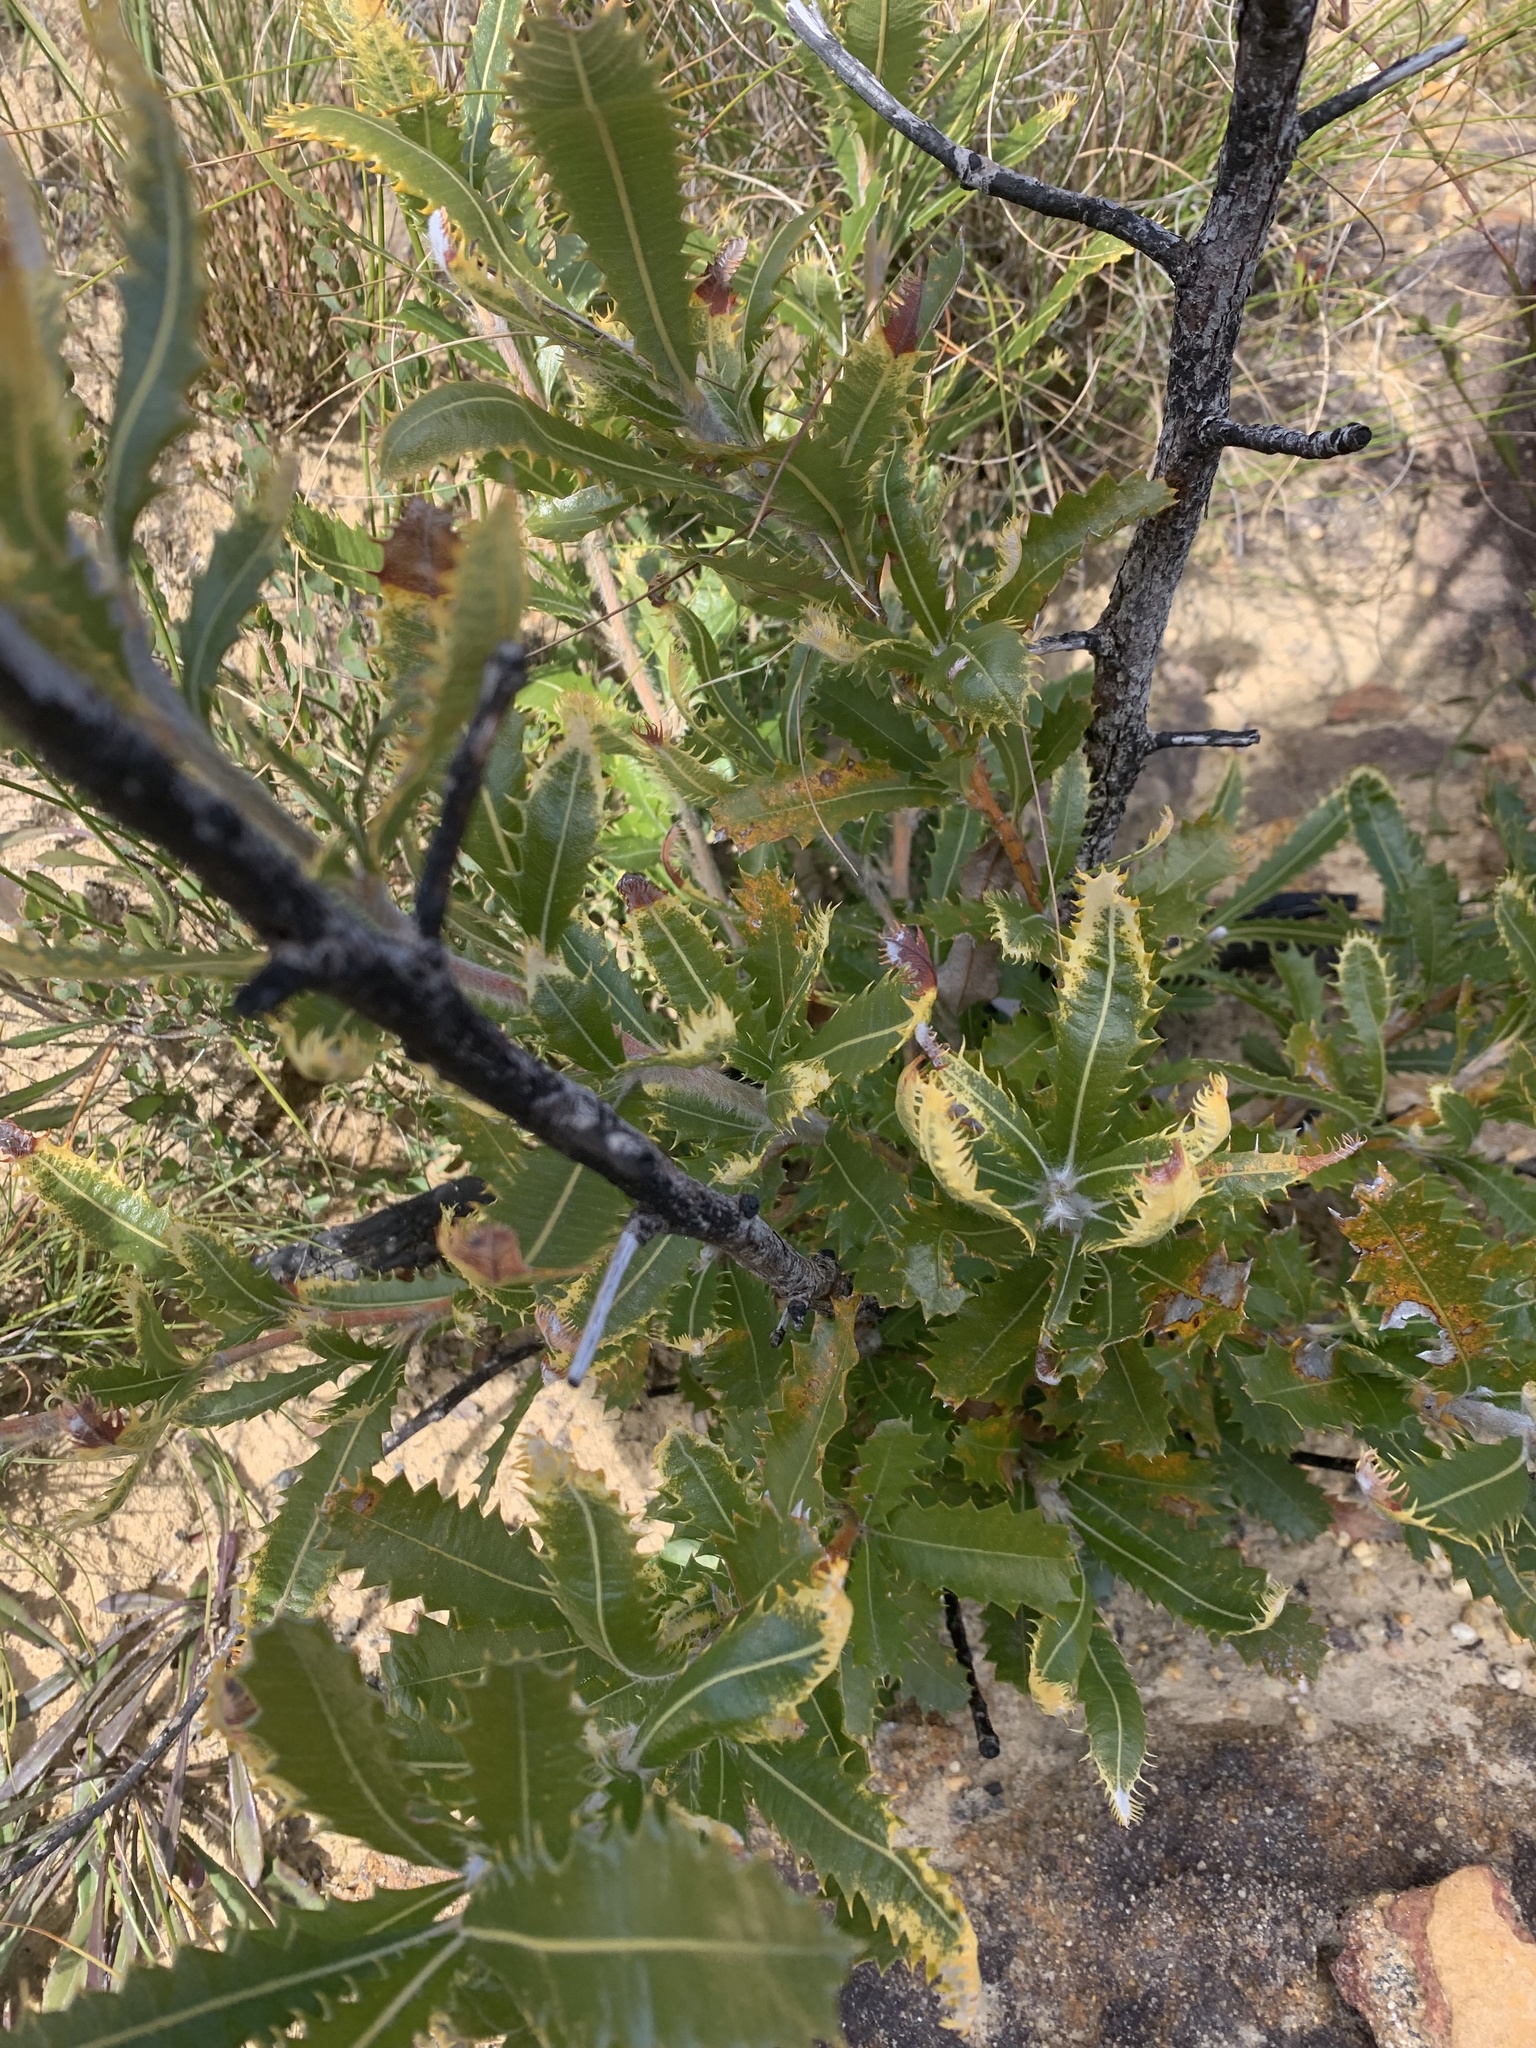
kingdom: Plantae
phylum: Tracheophyta
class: Magnoliopsida
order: Proteales
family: Proteaceae
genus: Banksia
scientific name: Banksia serrata
